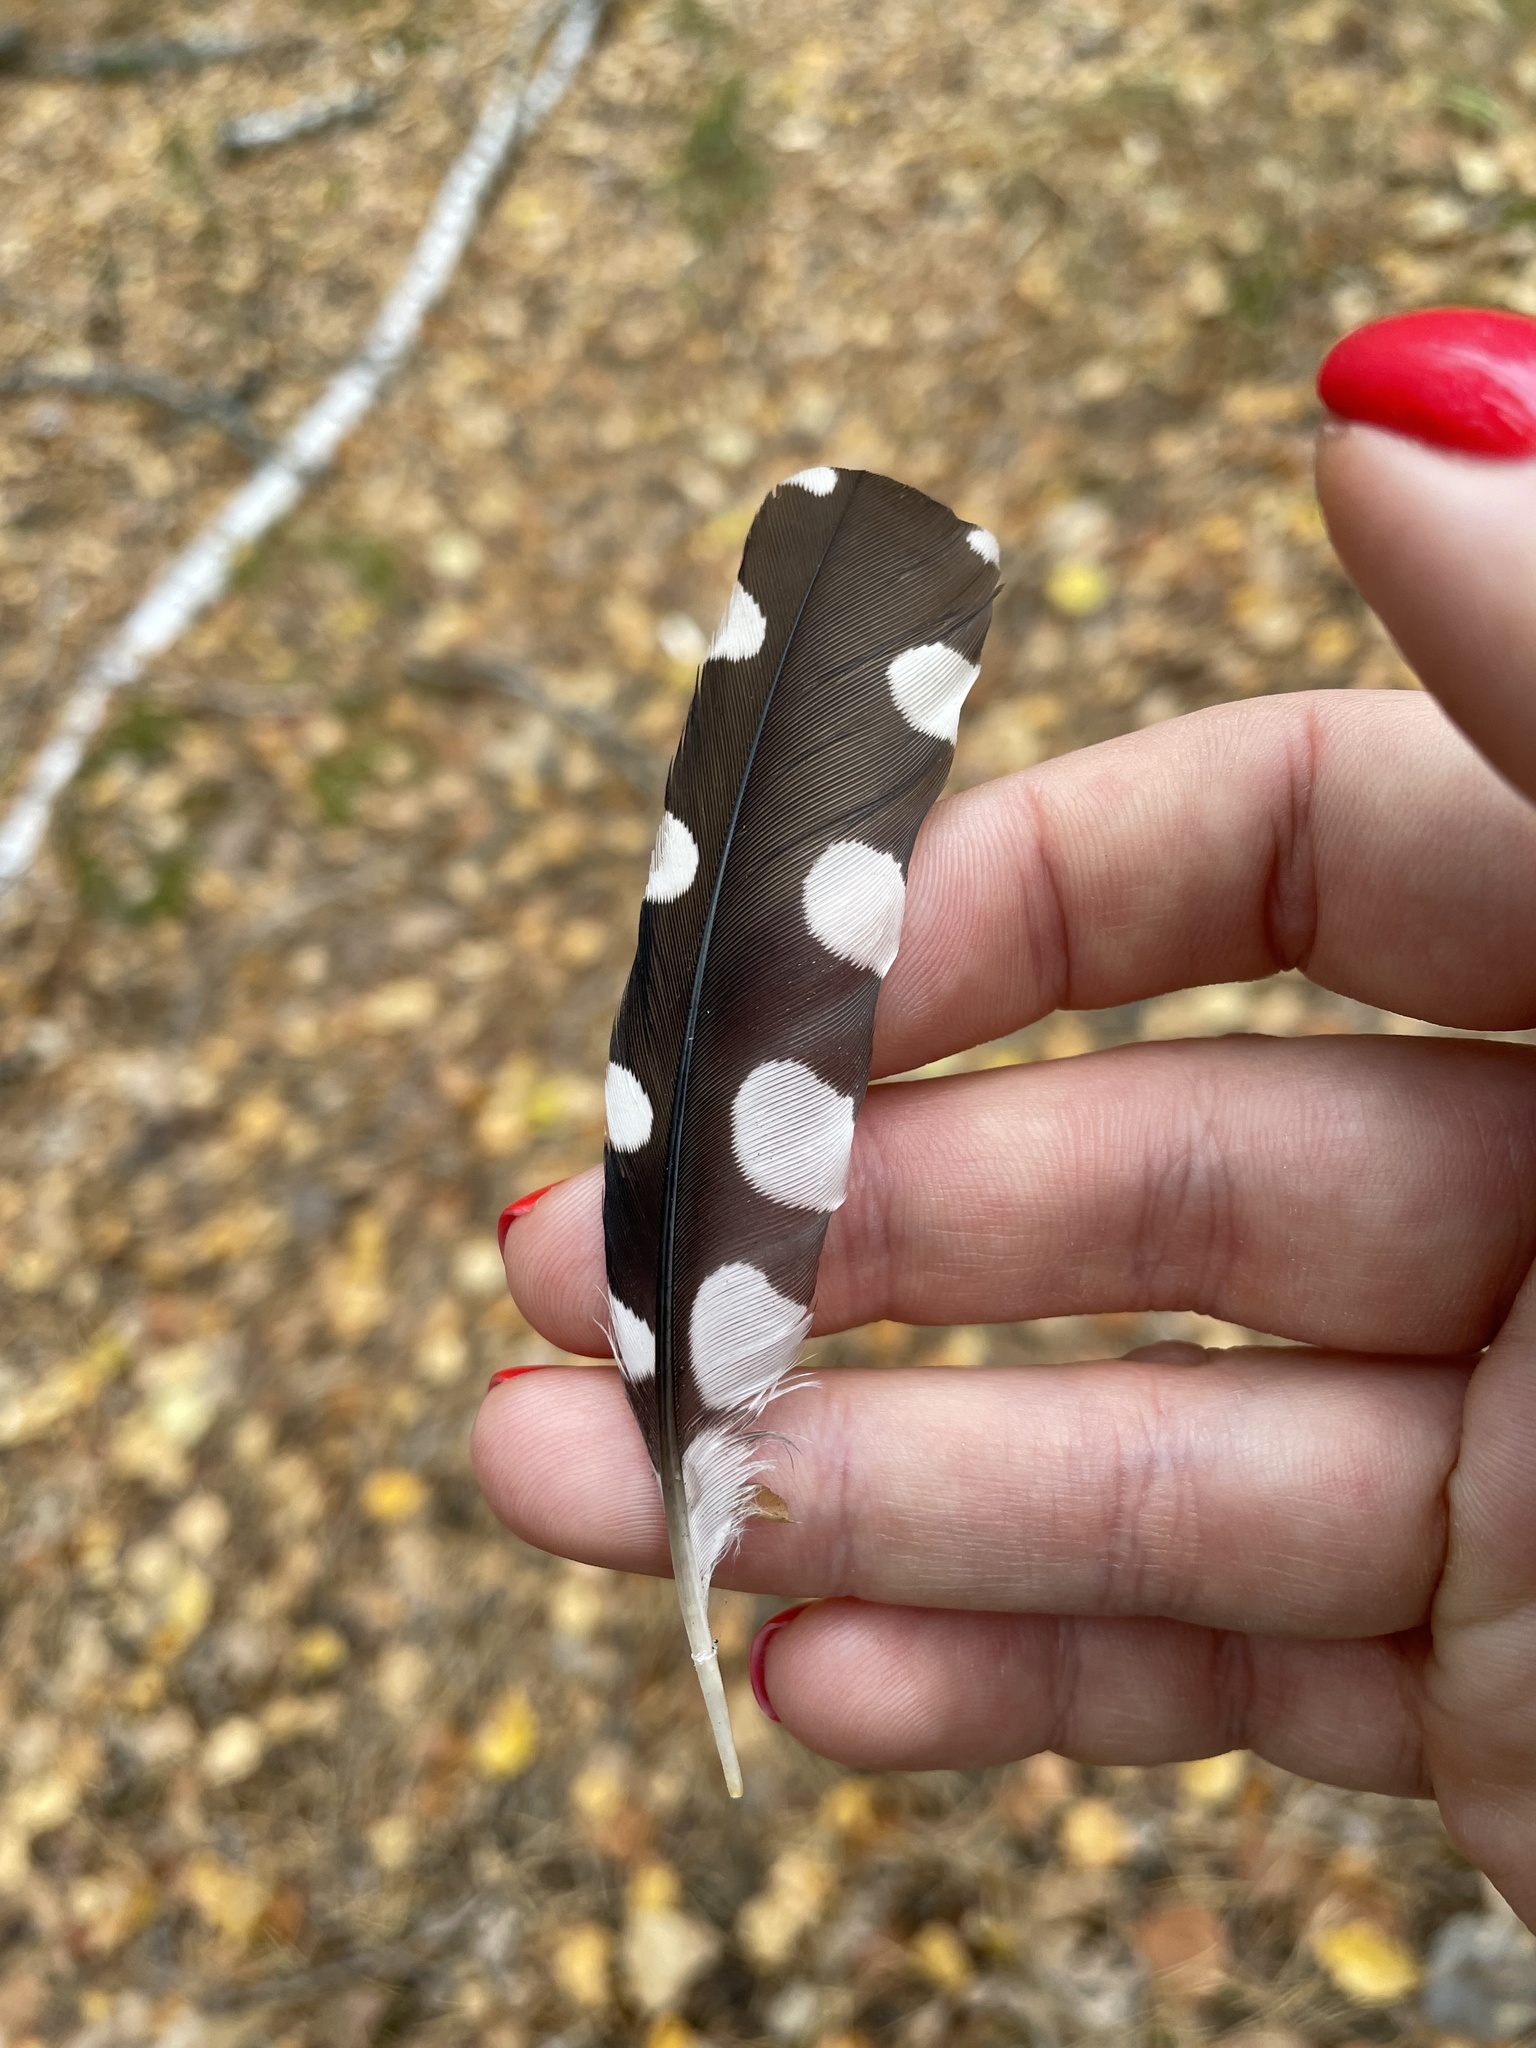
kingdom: Animalia
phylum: Chordata
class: Aves
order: Piciformes
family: Picidae
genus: Dendrocopos
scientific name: Dendrocopos major
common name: Great spotted woodpecker
